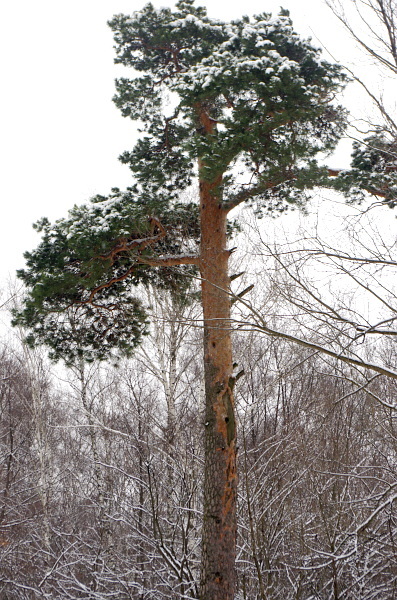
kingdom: Plantae
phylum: Tracheophyta
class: Pinopsida
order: Pinales
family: Pinaceae
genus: Pinus
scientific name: Pinus sylvestris
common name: Scots pine
